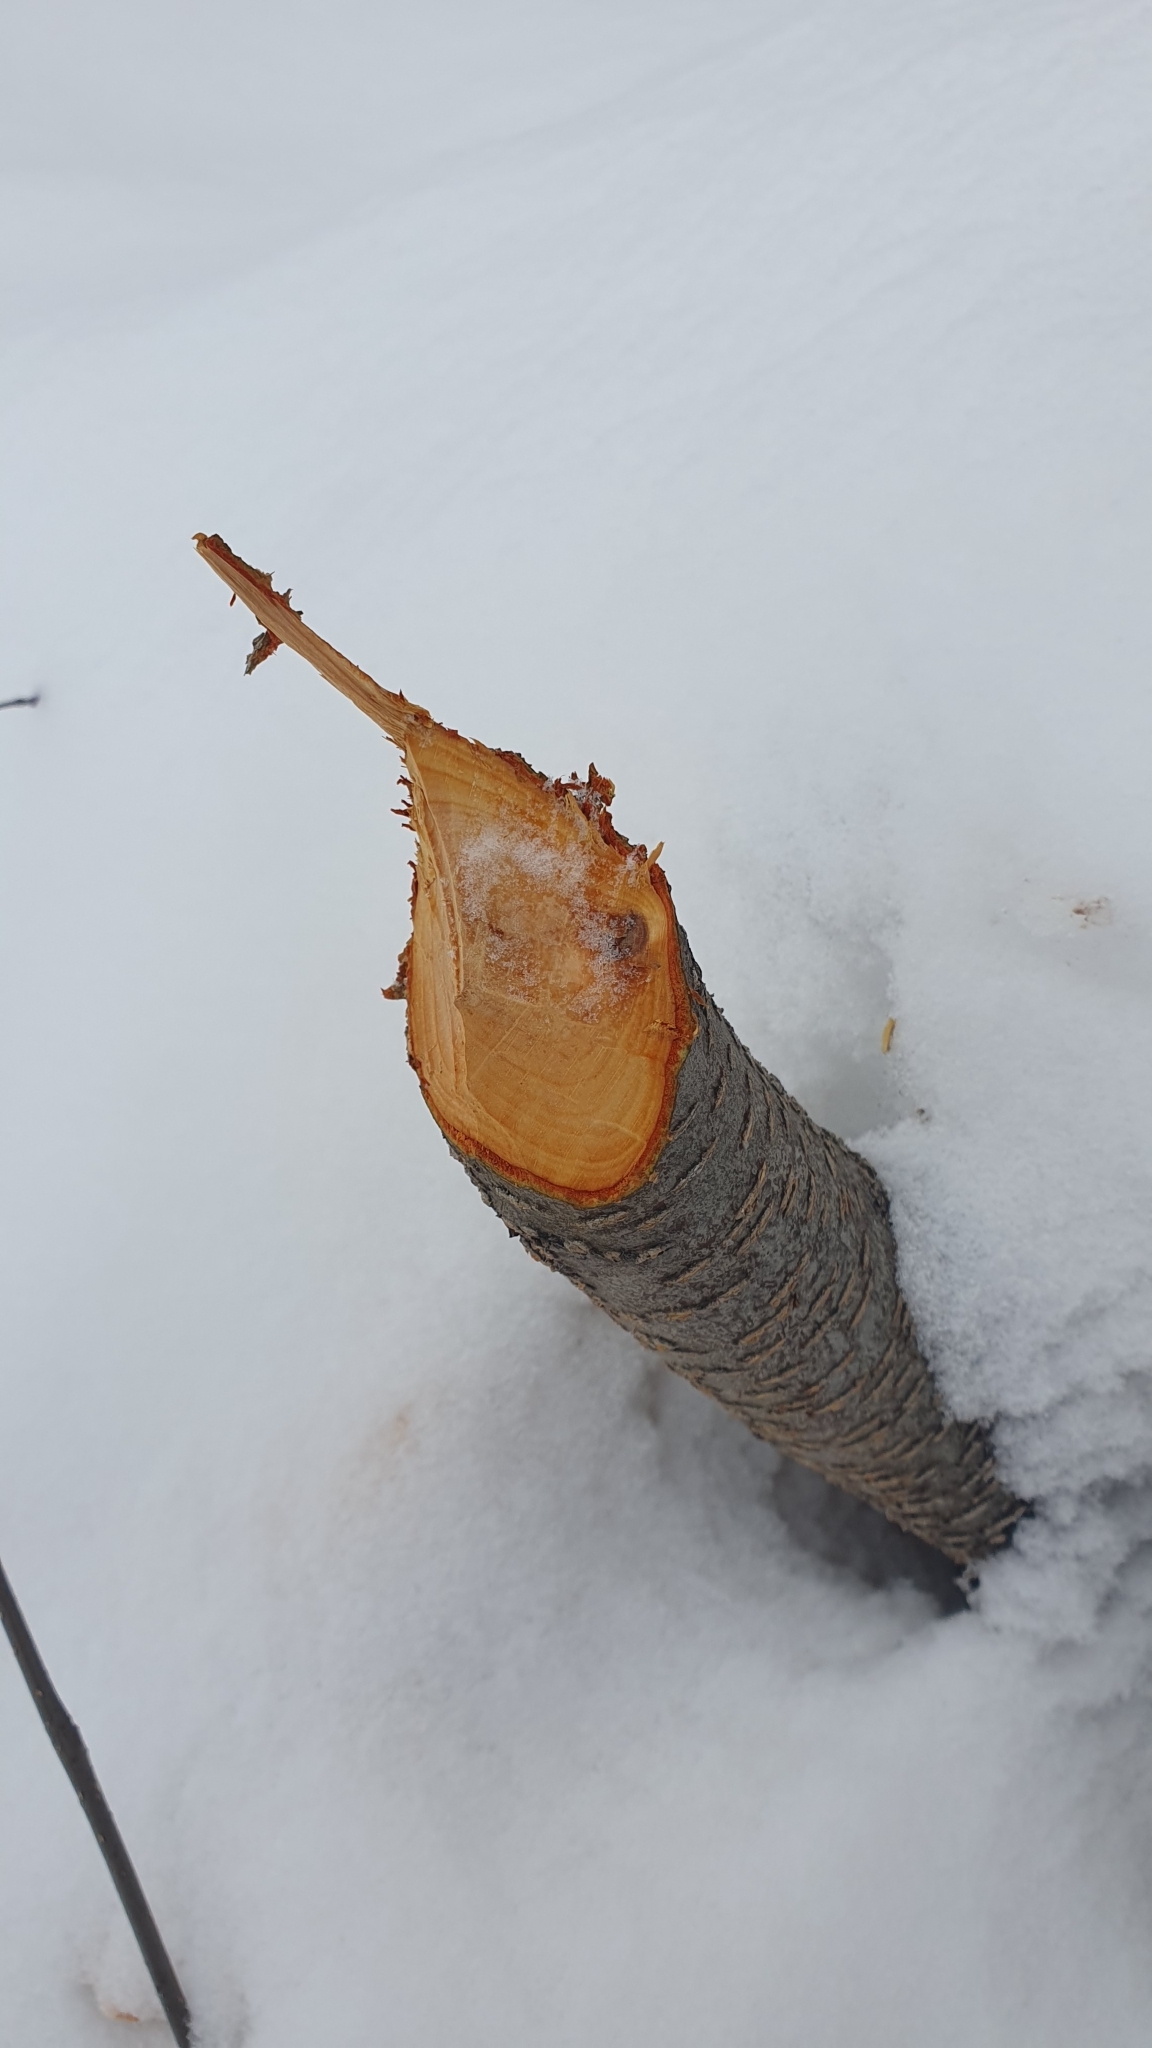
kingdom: Animalia
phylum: Chordata
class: Mammalia
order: Rodentia
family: Castoridae
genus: Castor
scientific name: Castor fiber
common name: Eurasian beaver
